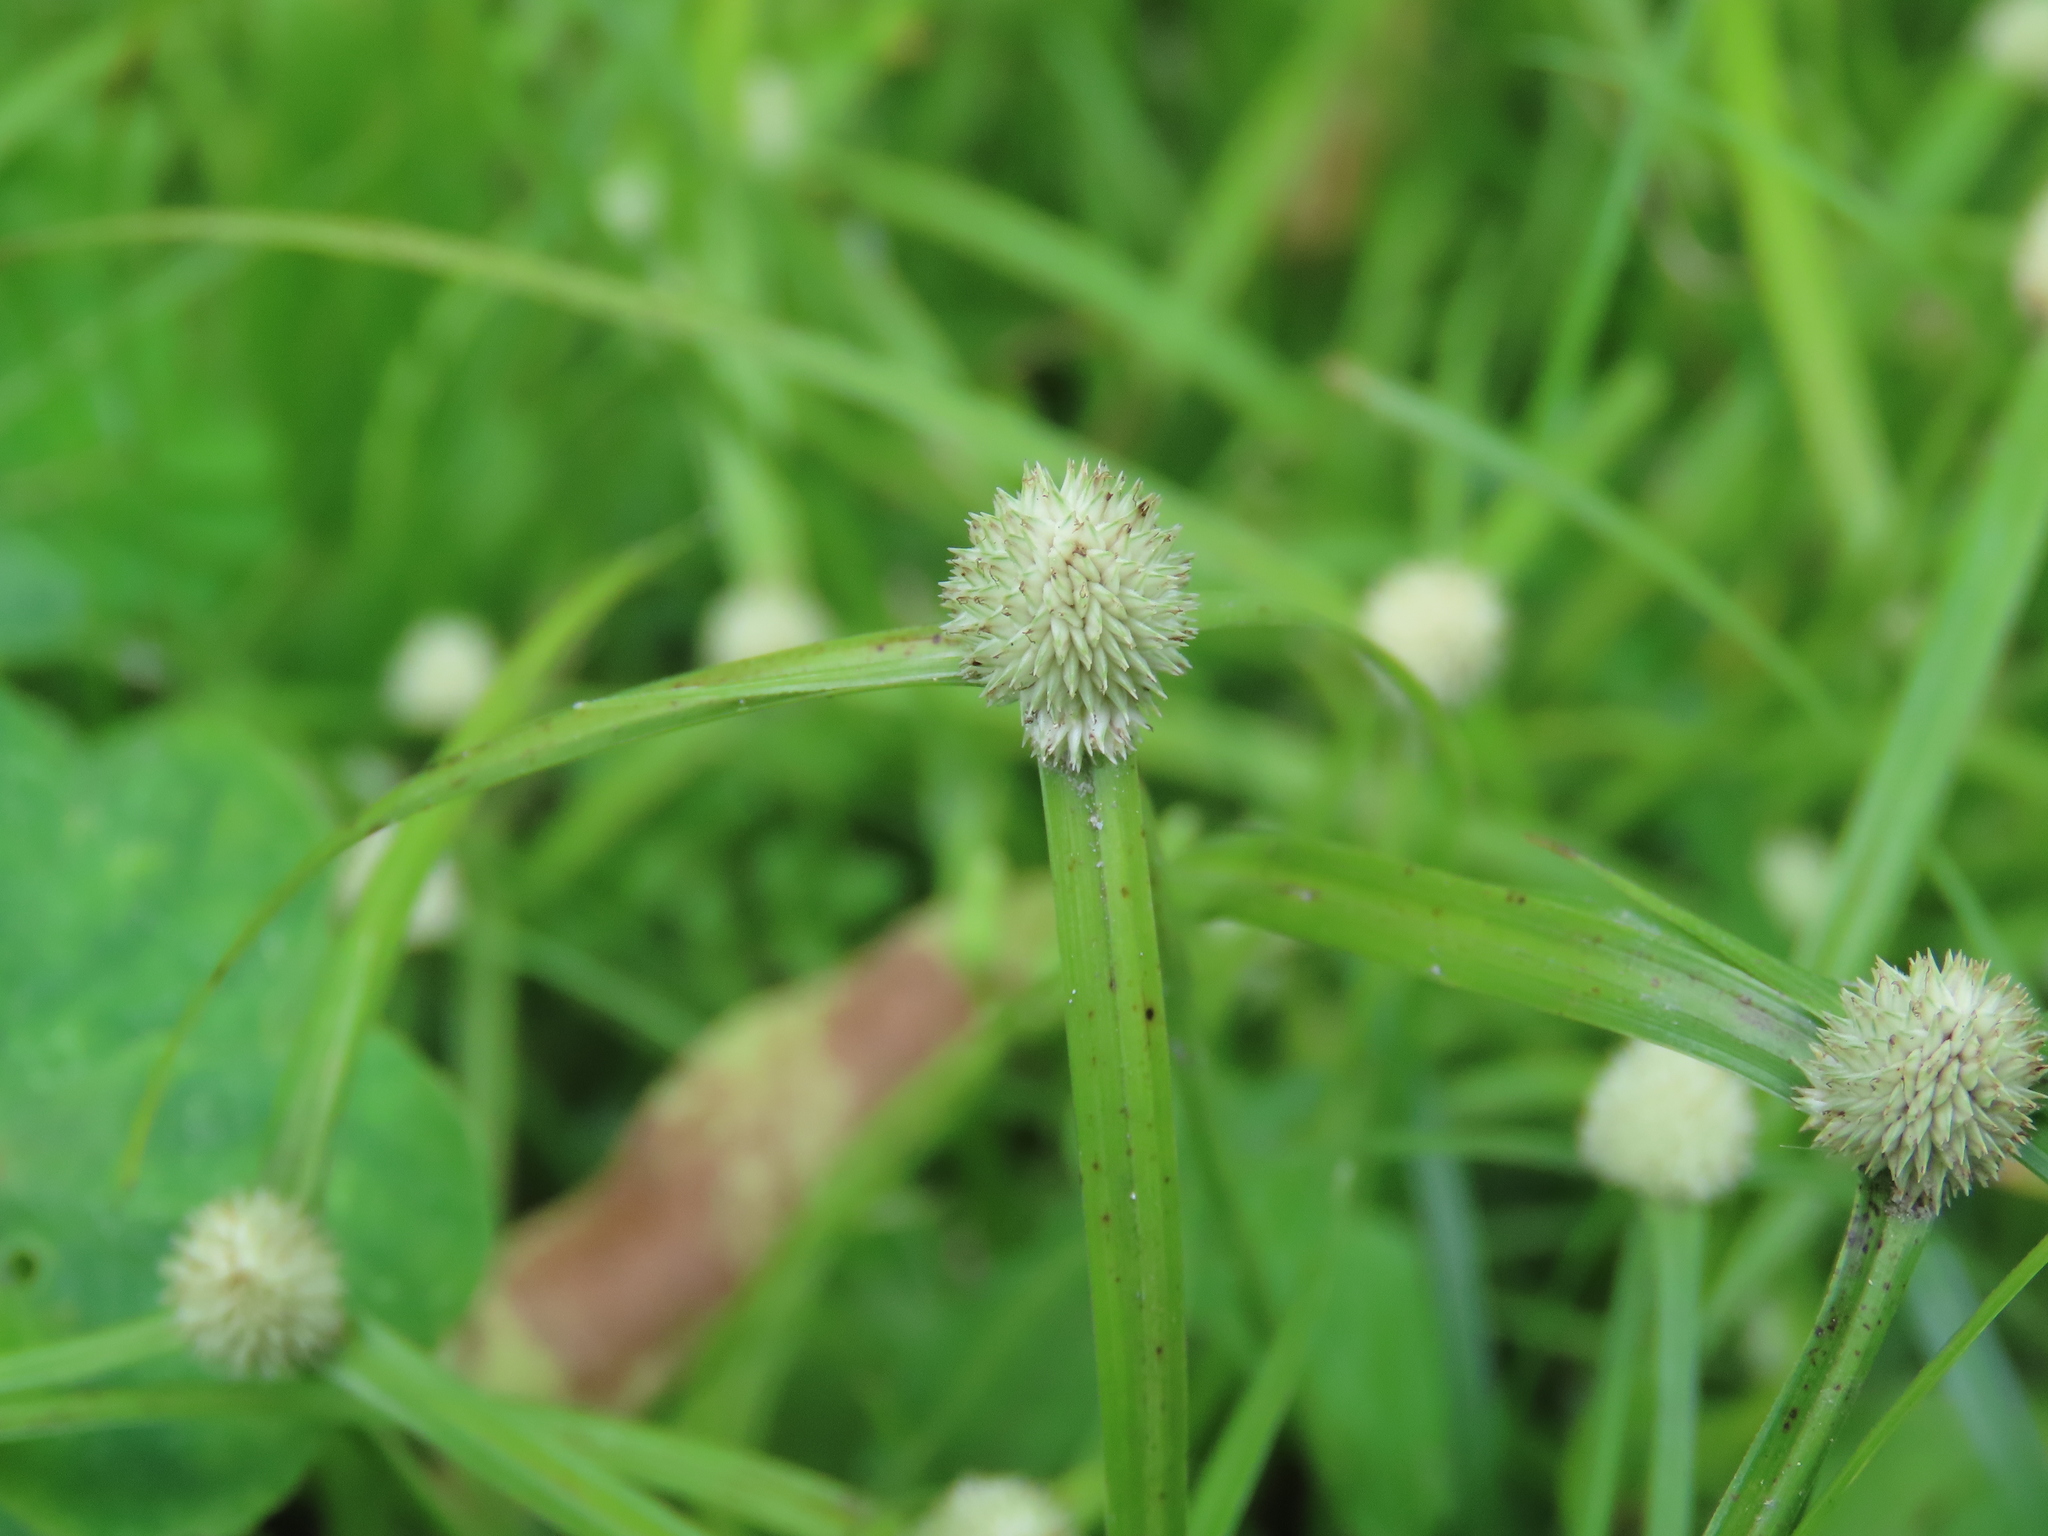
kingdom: Plantae
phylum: Tracheophyta
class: Liliopsida
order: Poales
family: Cyperaceae
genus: Cyperus
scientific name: Cyperus mindorensis
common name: Flatsedge
